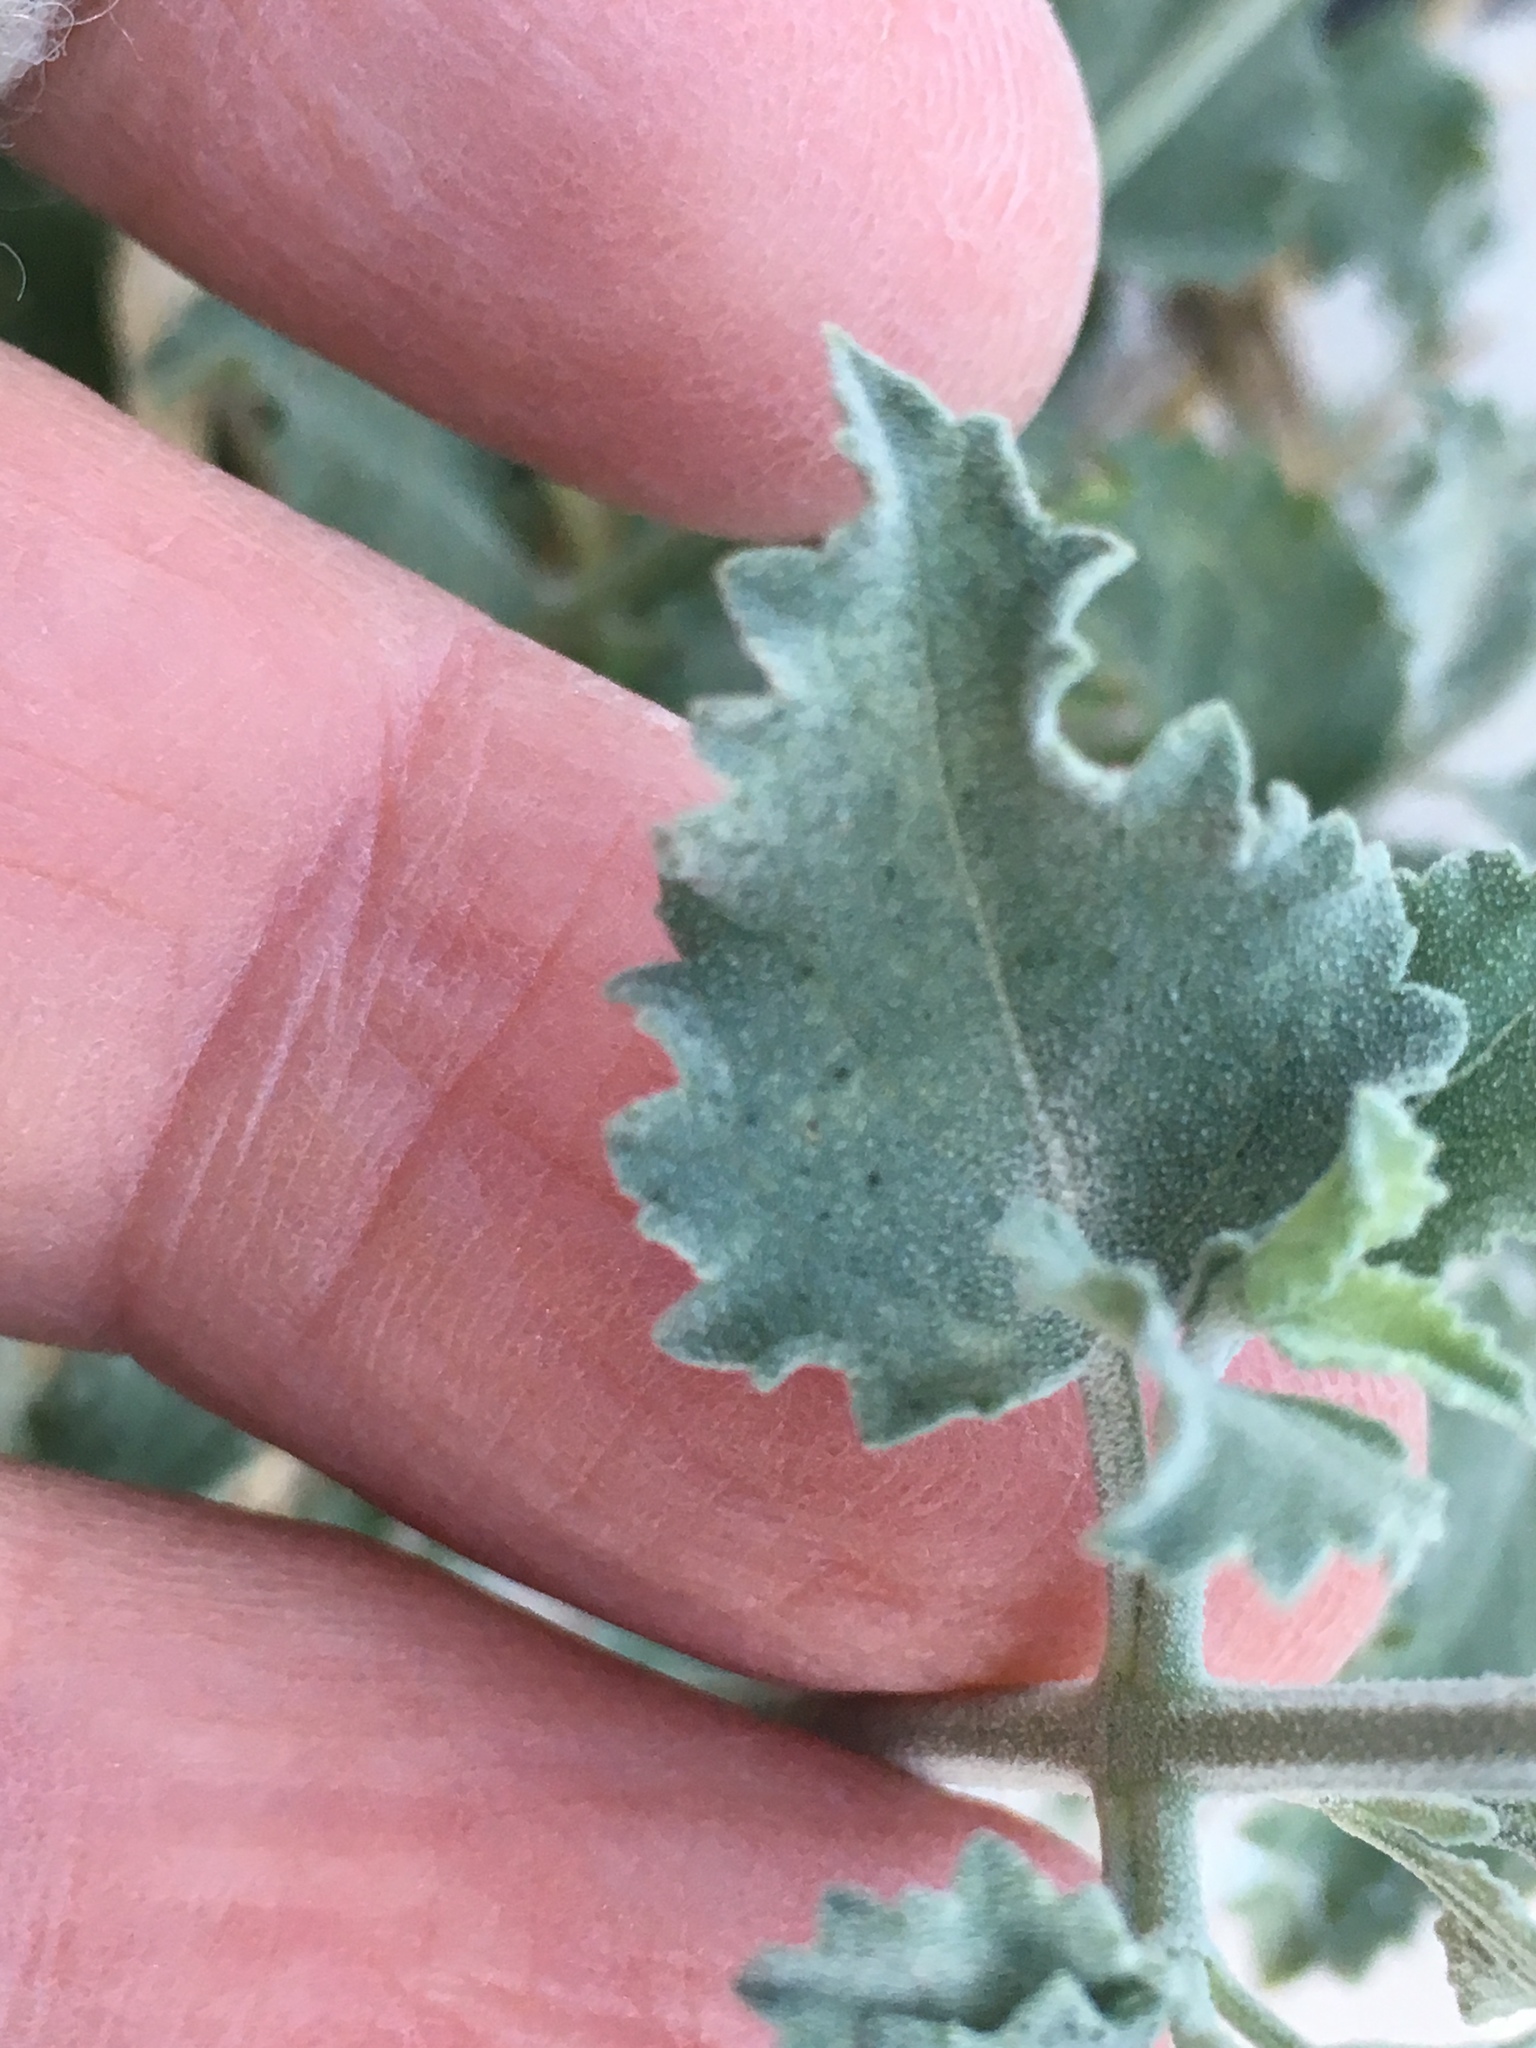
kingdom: Plantae
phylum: Tracheophyta
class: Magnoliopsida
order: Lamiales
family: Lamiaceae
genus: Condea
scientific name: Condea emoryi
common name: Chia
